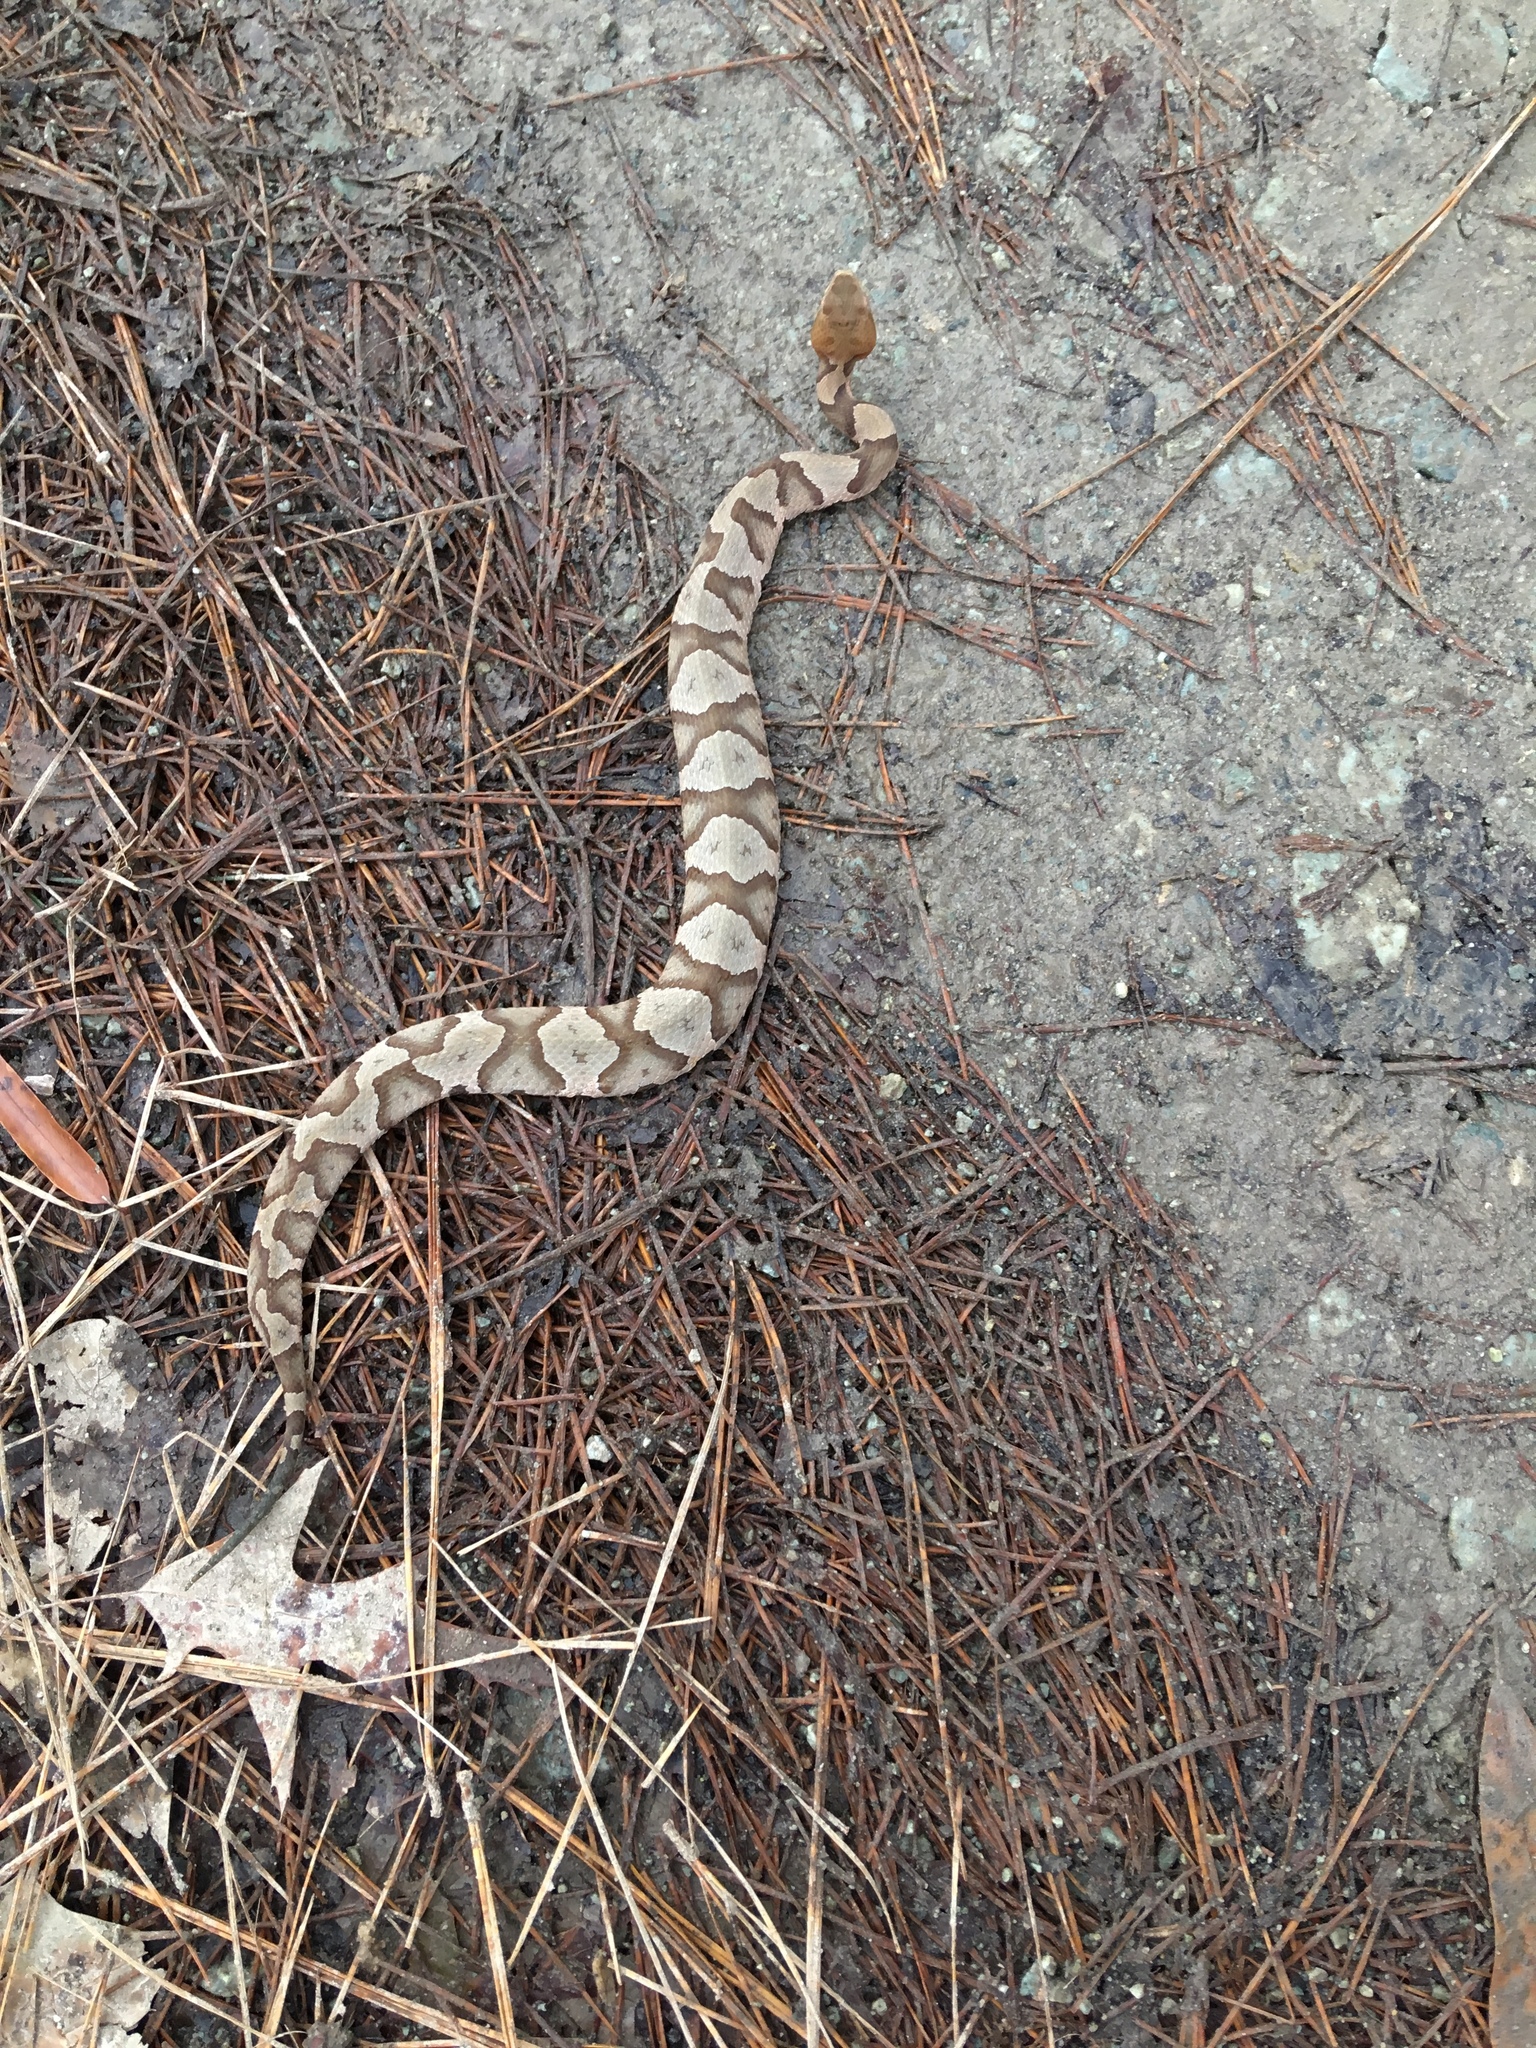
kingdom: Animalia
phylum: Chordata
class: Squamata
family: Viperidae
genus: Agkistrodon
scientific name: Agkistrodon contortrix
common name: Northern copperhead
